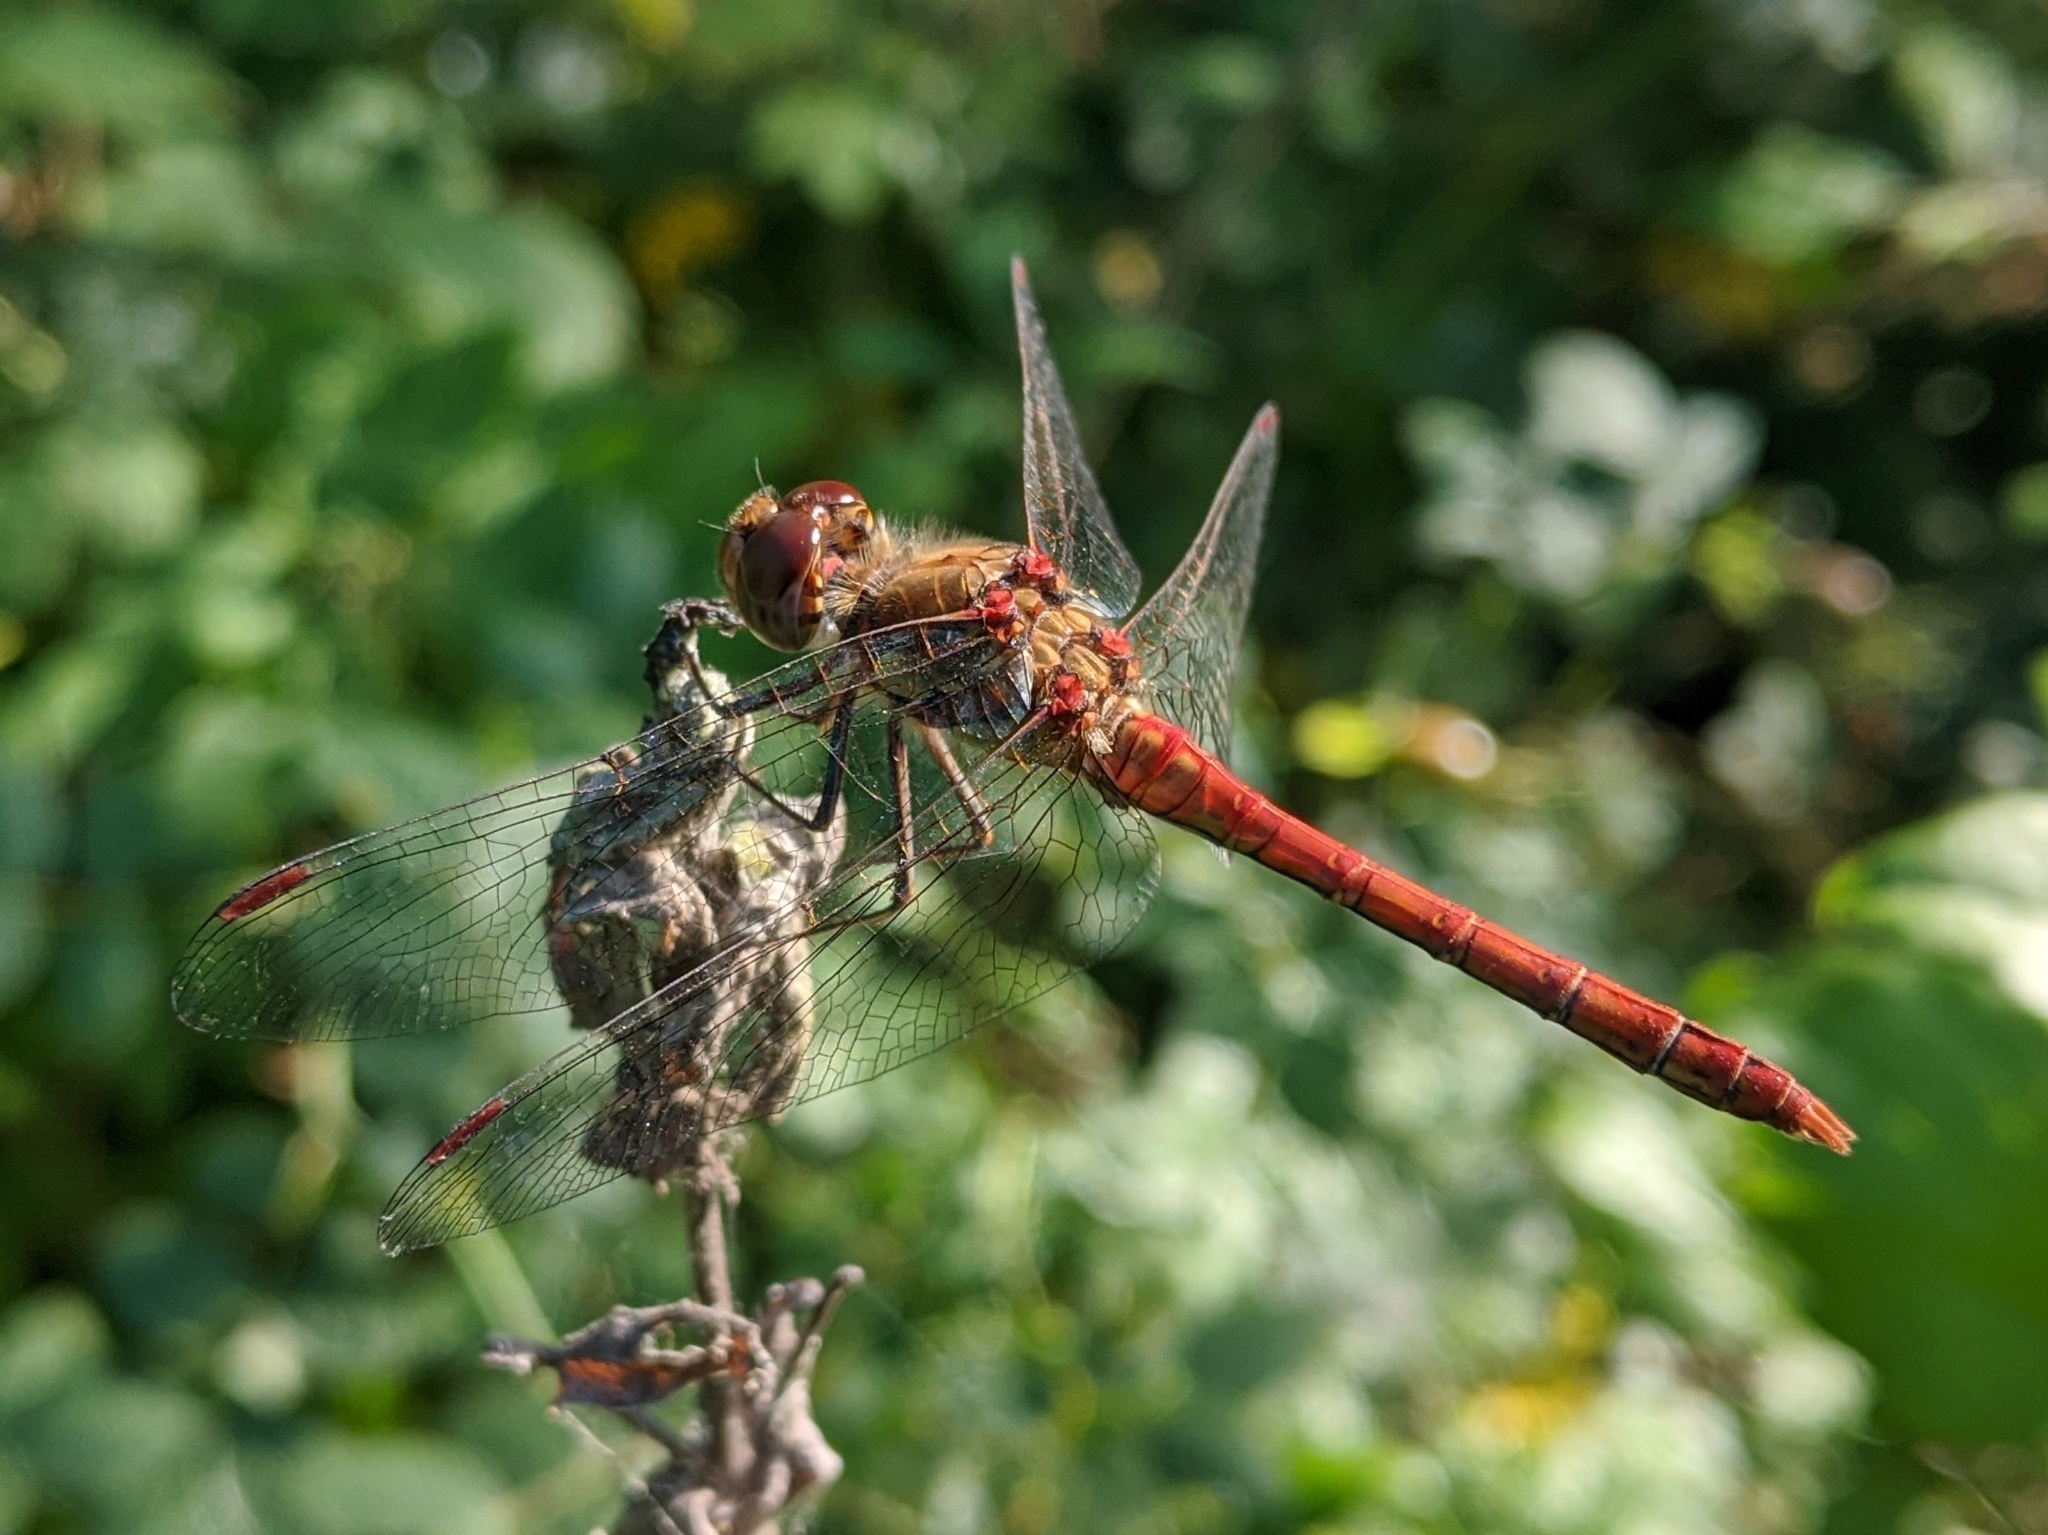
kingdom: Animalia
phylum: Arthropoda
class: Insecta
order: Odonata
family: Libellulidae
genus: Sympetrum
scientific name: Sympetrum striolatum
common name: Common darter
